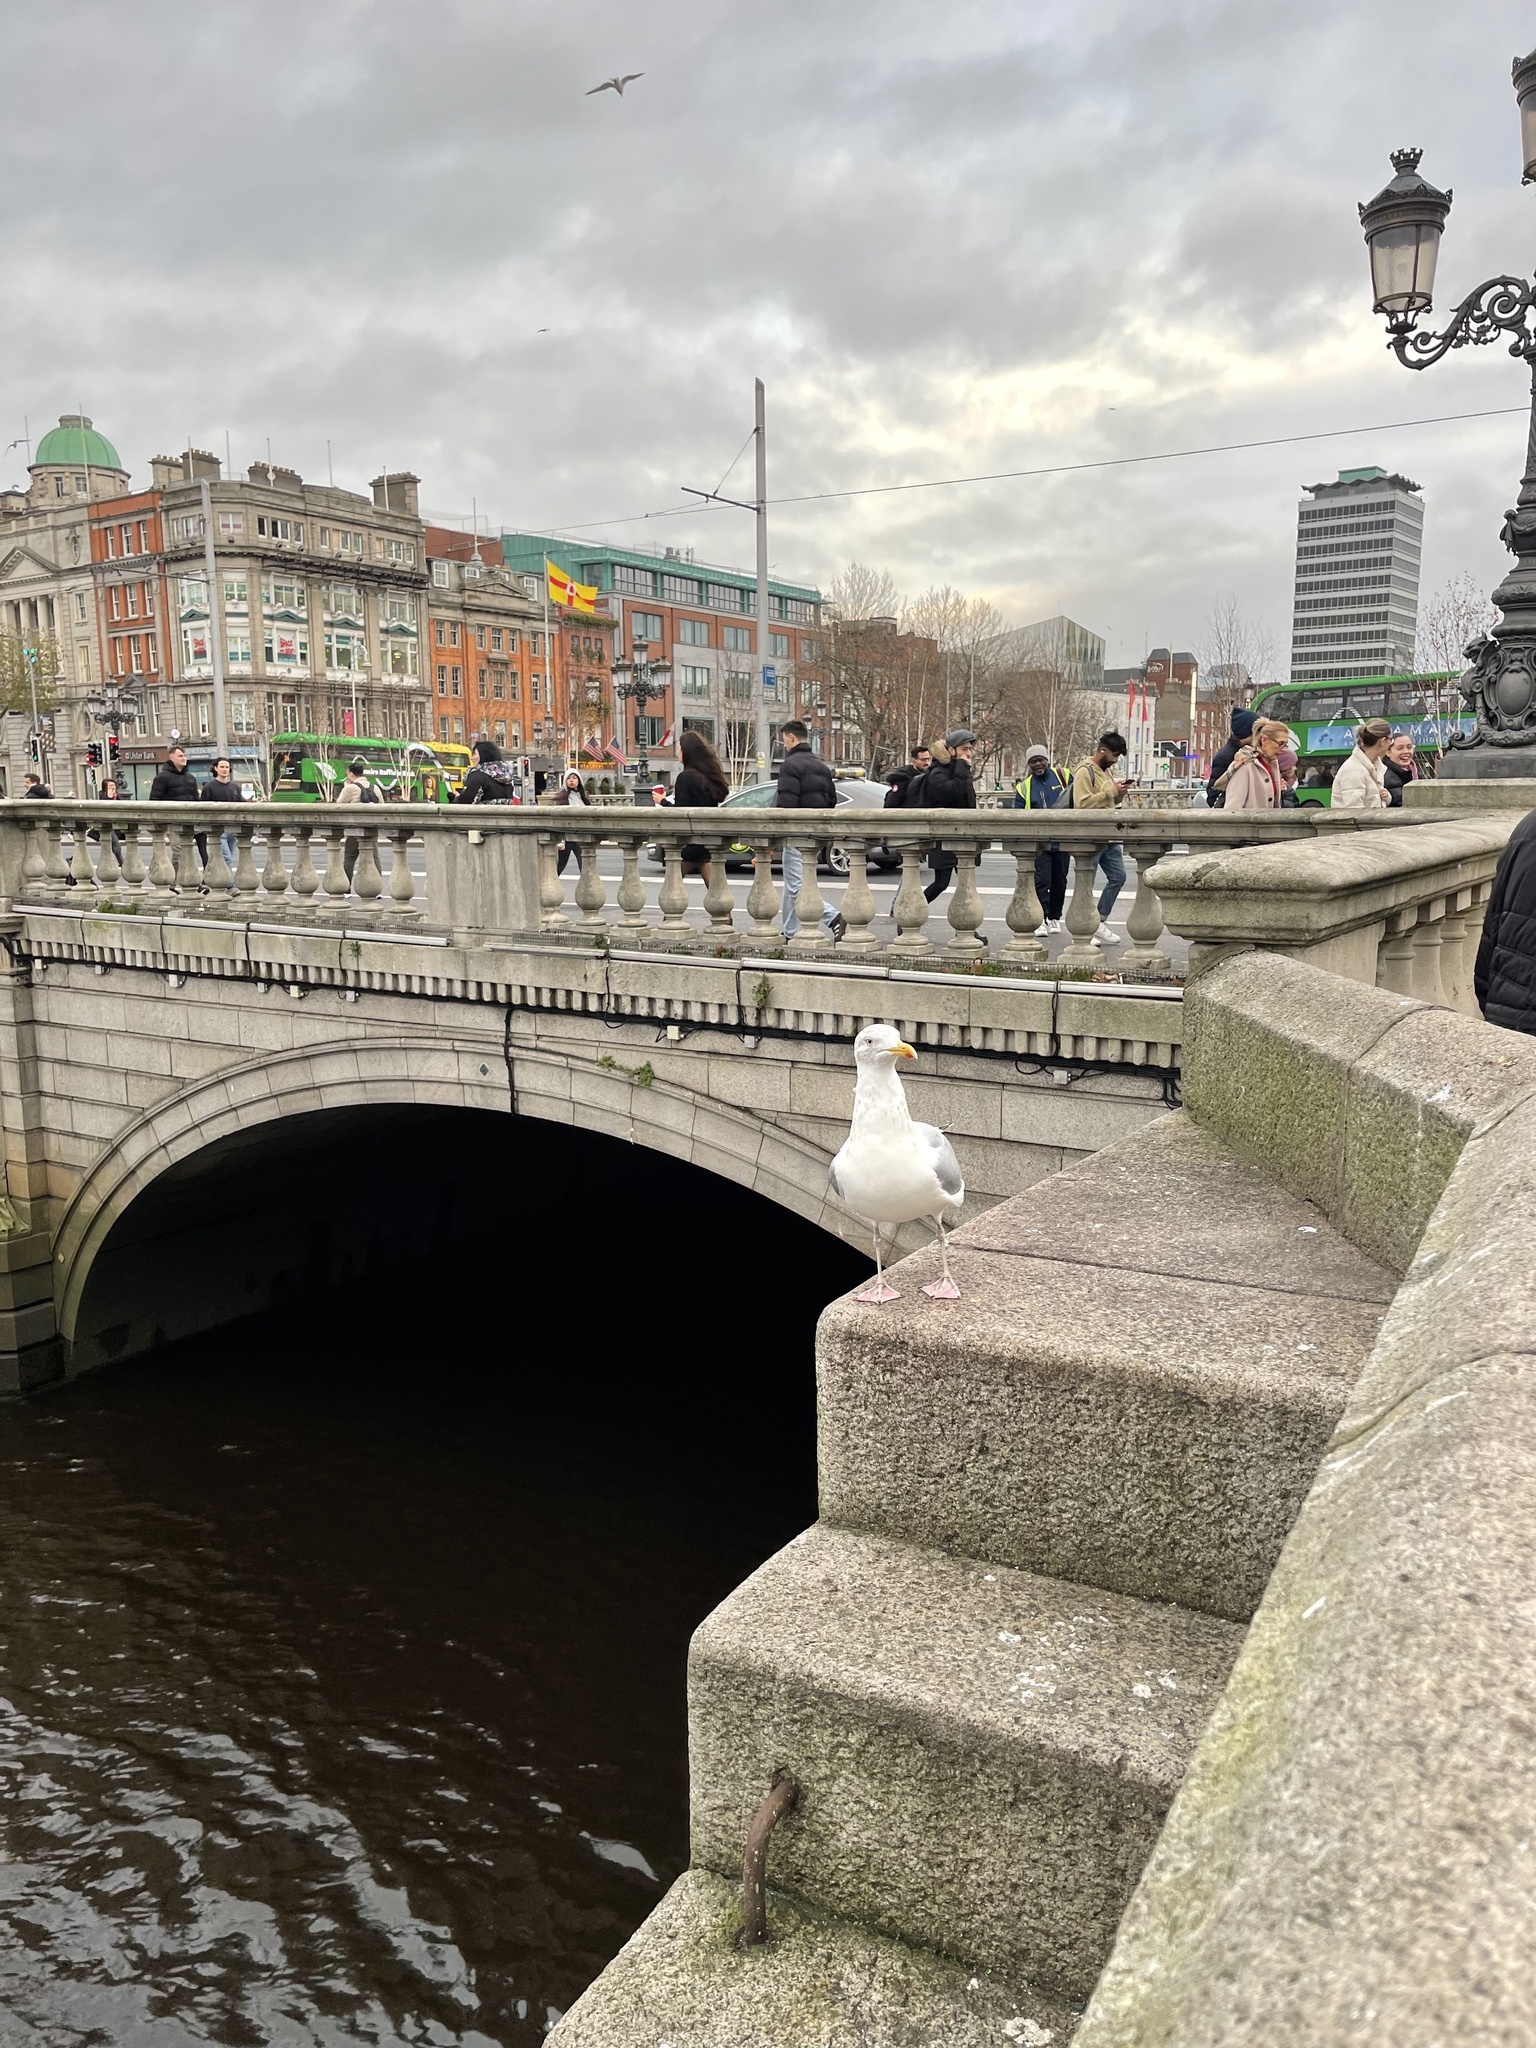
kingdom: Animalia
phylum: Chordata
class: Aves
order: Charadriiformes
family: Laridae
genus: Larus
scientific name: Larus argentatus
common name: Herring gull
